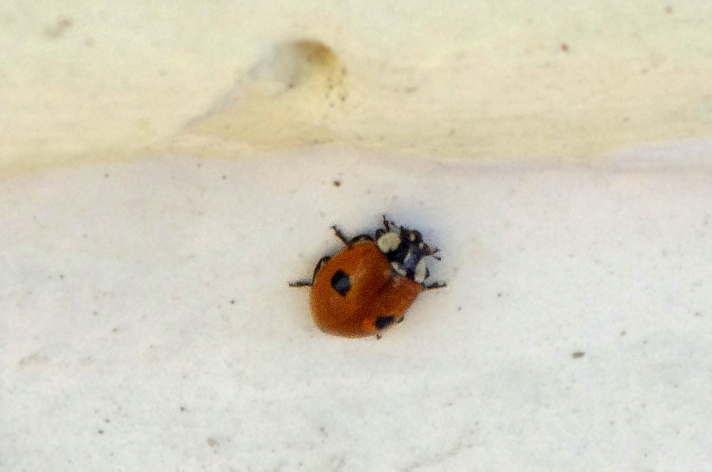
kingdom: Animalia
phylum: Arthropoda
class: Insecta
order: Coleoptera
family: Coccinellidae
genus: Adalia
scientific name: Adalia bipunctata
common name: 2-spot ladybird
